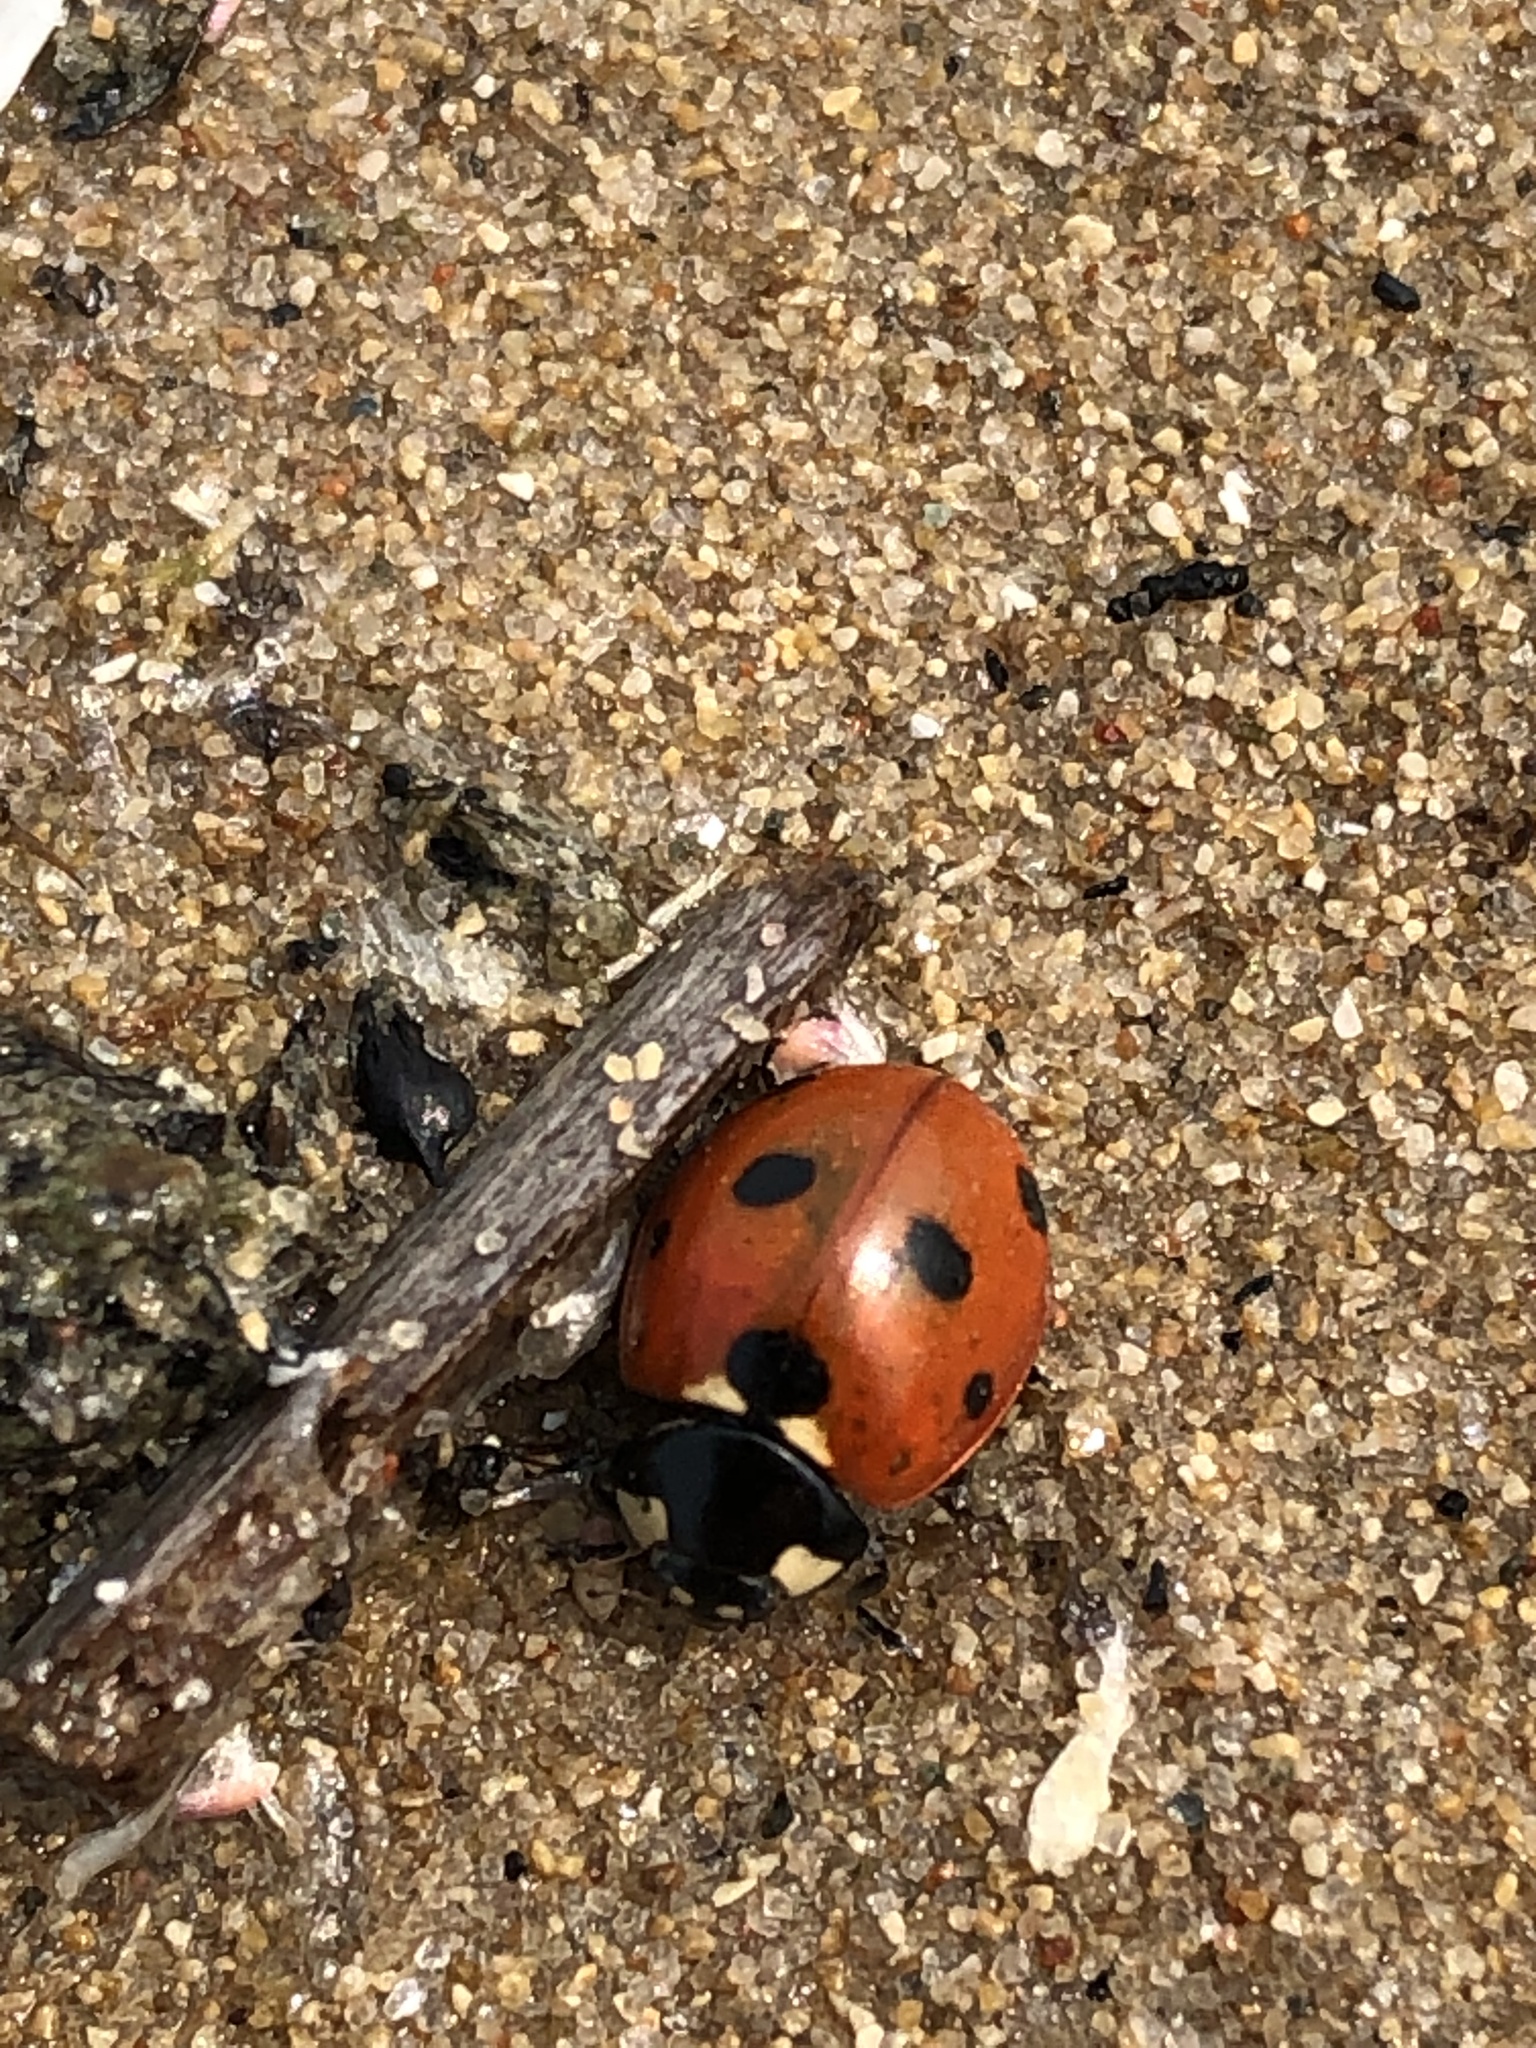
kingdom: Animalia
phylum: Arthropoda
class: Insecta
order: Coleoptera
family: Coccinellidae
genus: Coccinella
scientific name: Coccinella septempunctata
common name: Sevenspotted lady beetle
